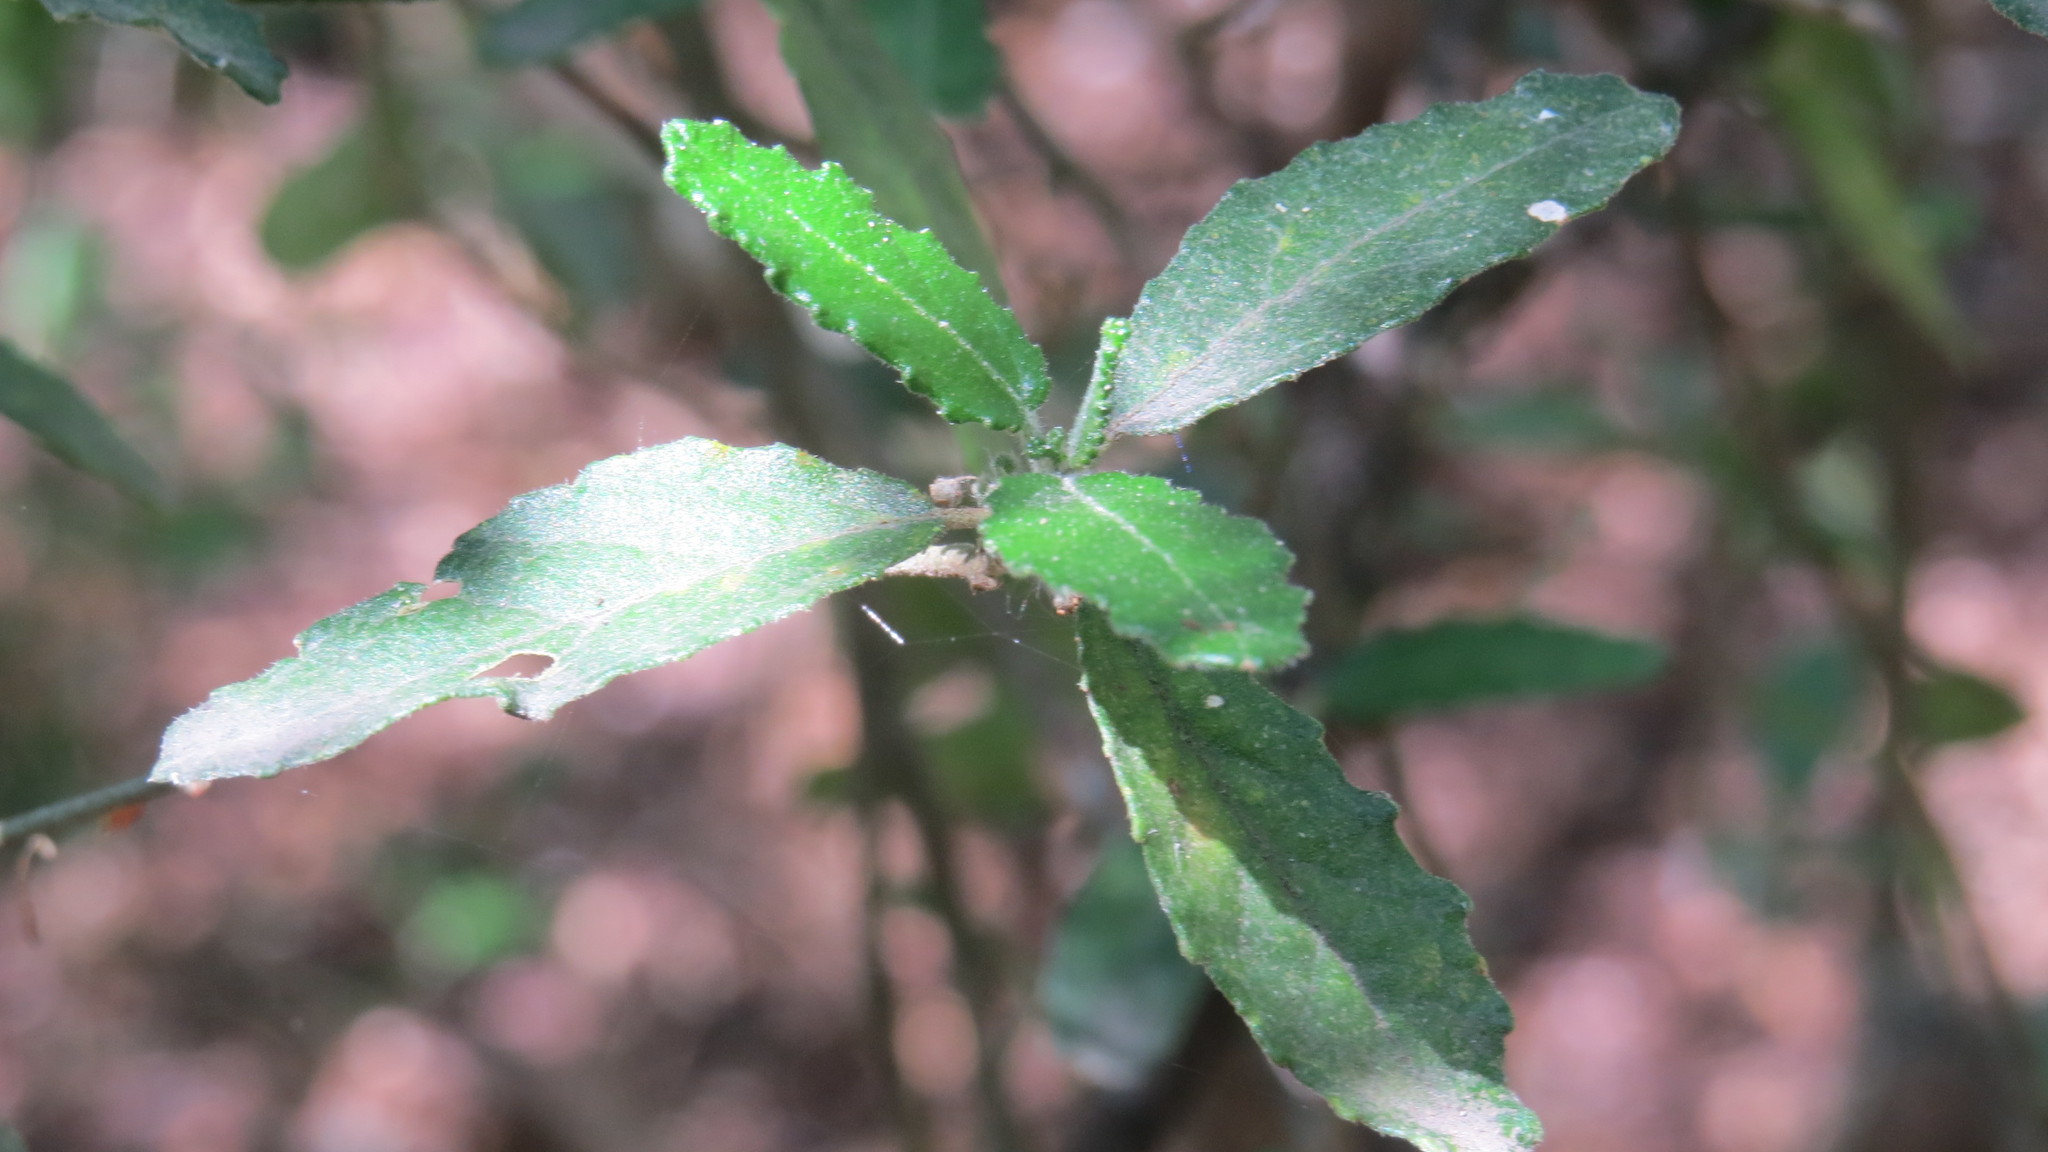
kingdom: Plantae
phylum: Tracheophyta
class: Magnoliopsida
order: Malpighiales
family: Euphorbiaceae
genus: Bernardia
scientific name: Bernardia myricifolia
